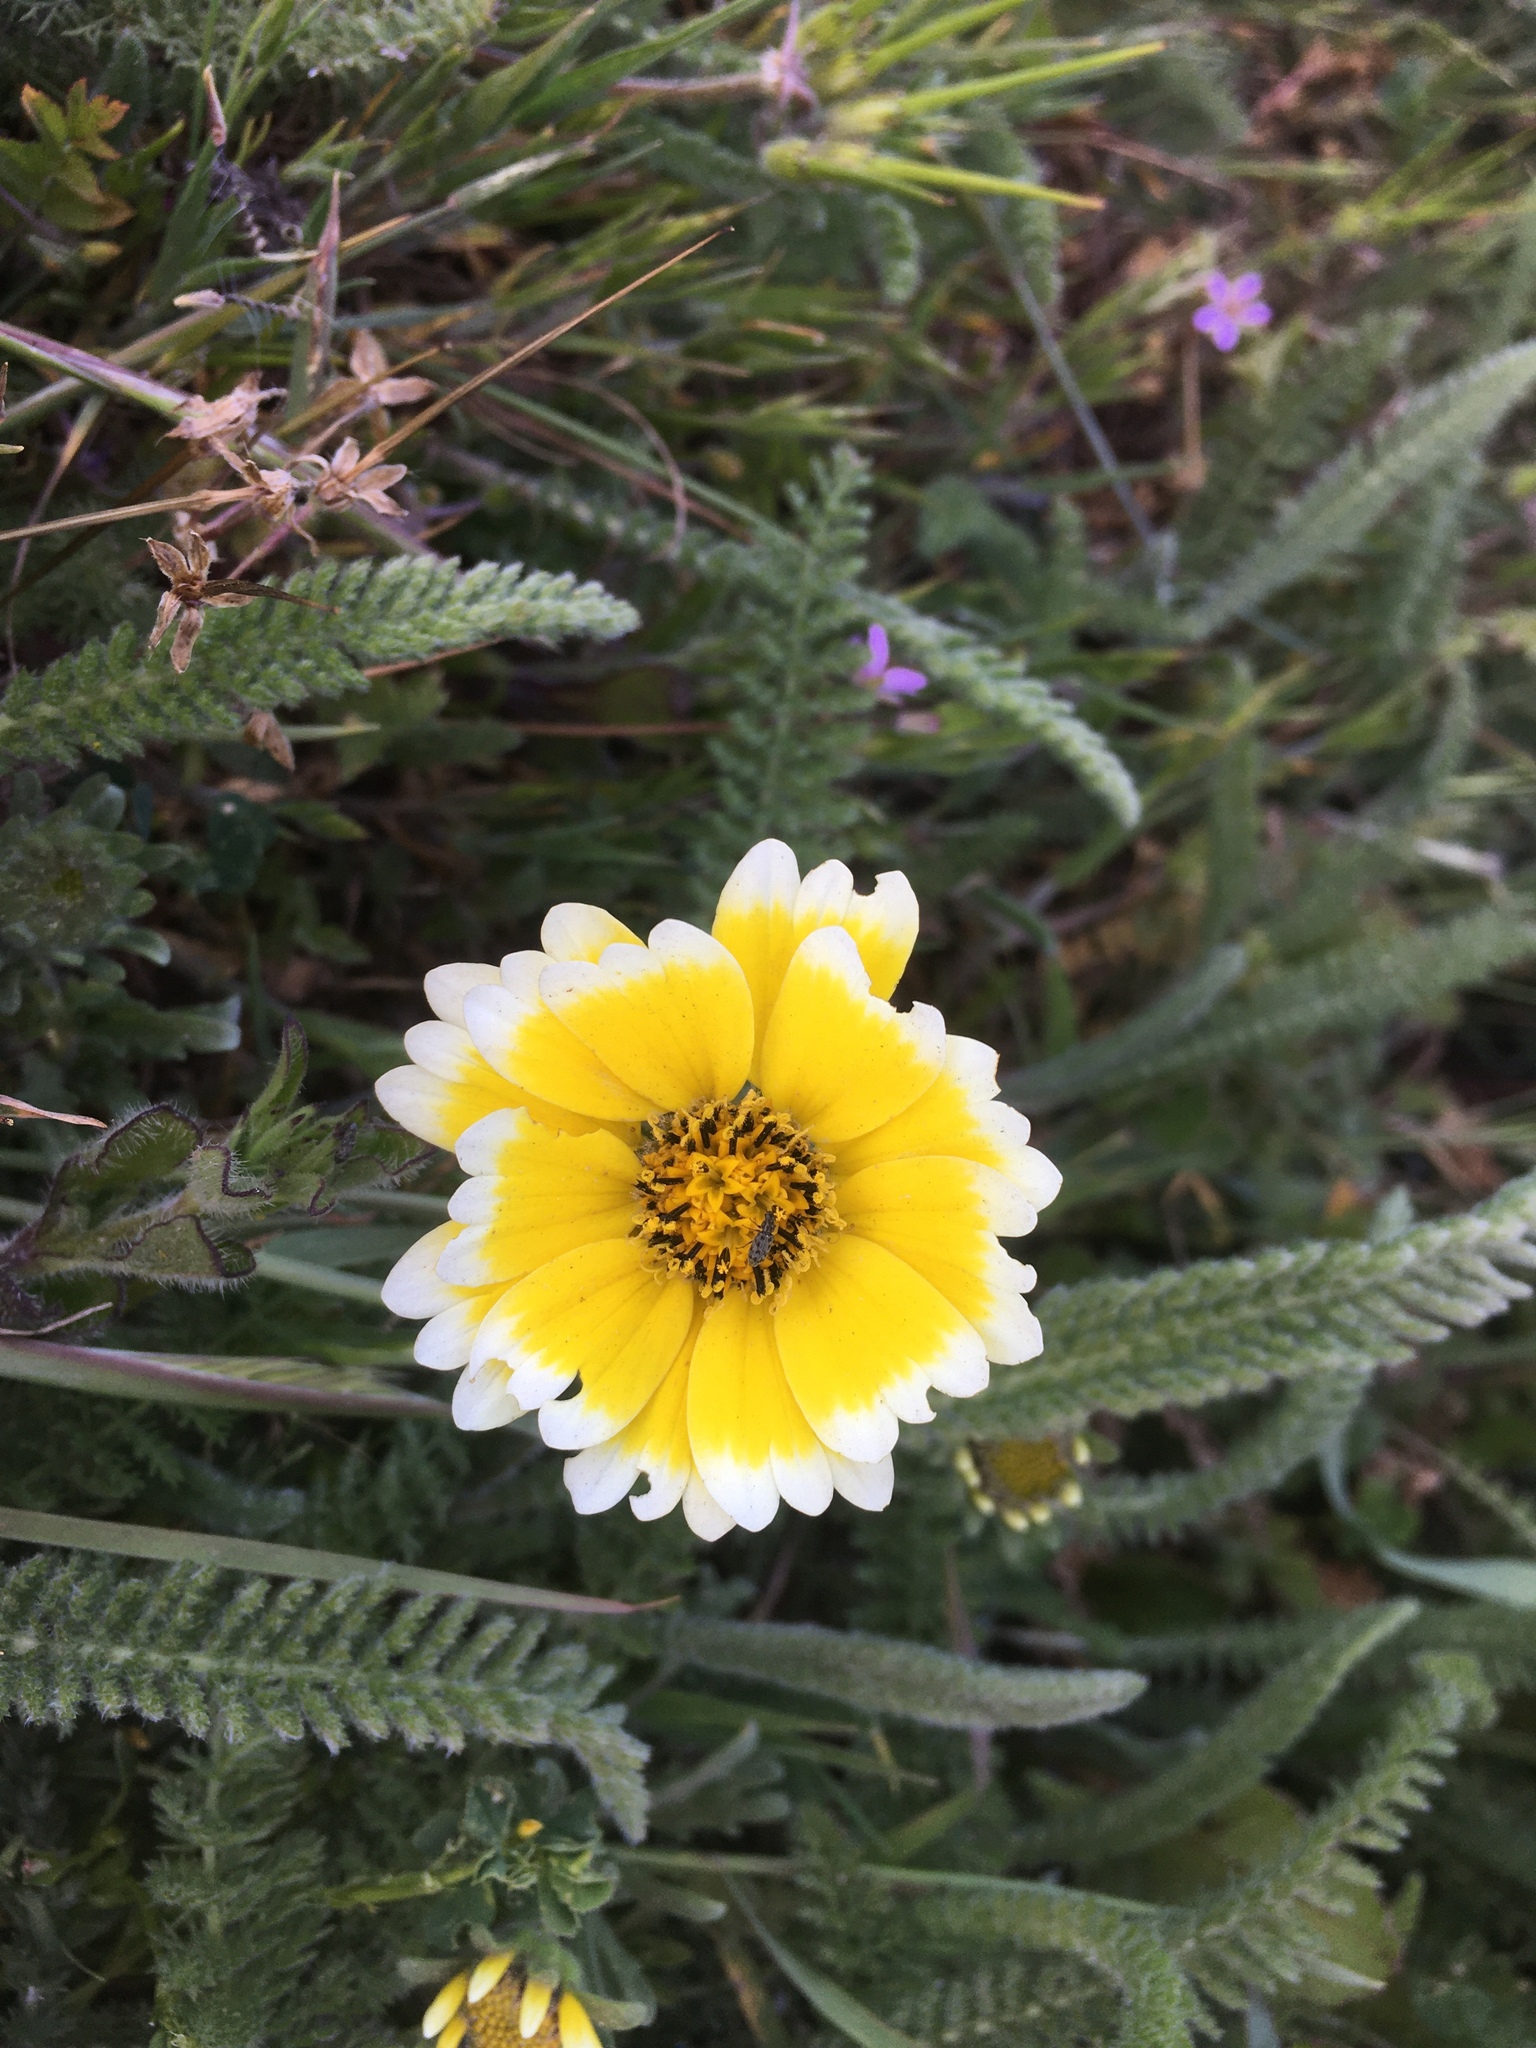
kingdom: Plantae
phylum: Tracheophyta
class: Magnoliopsida
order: Asterales
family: Asteraceae
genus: Layia
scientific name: Layia platyglossa
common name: Tidy-tips
